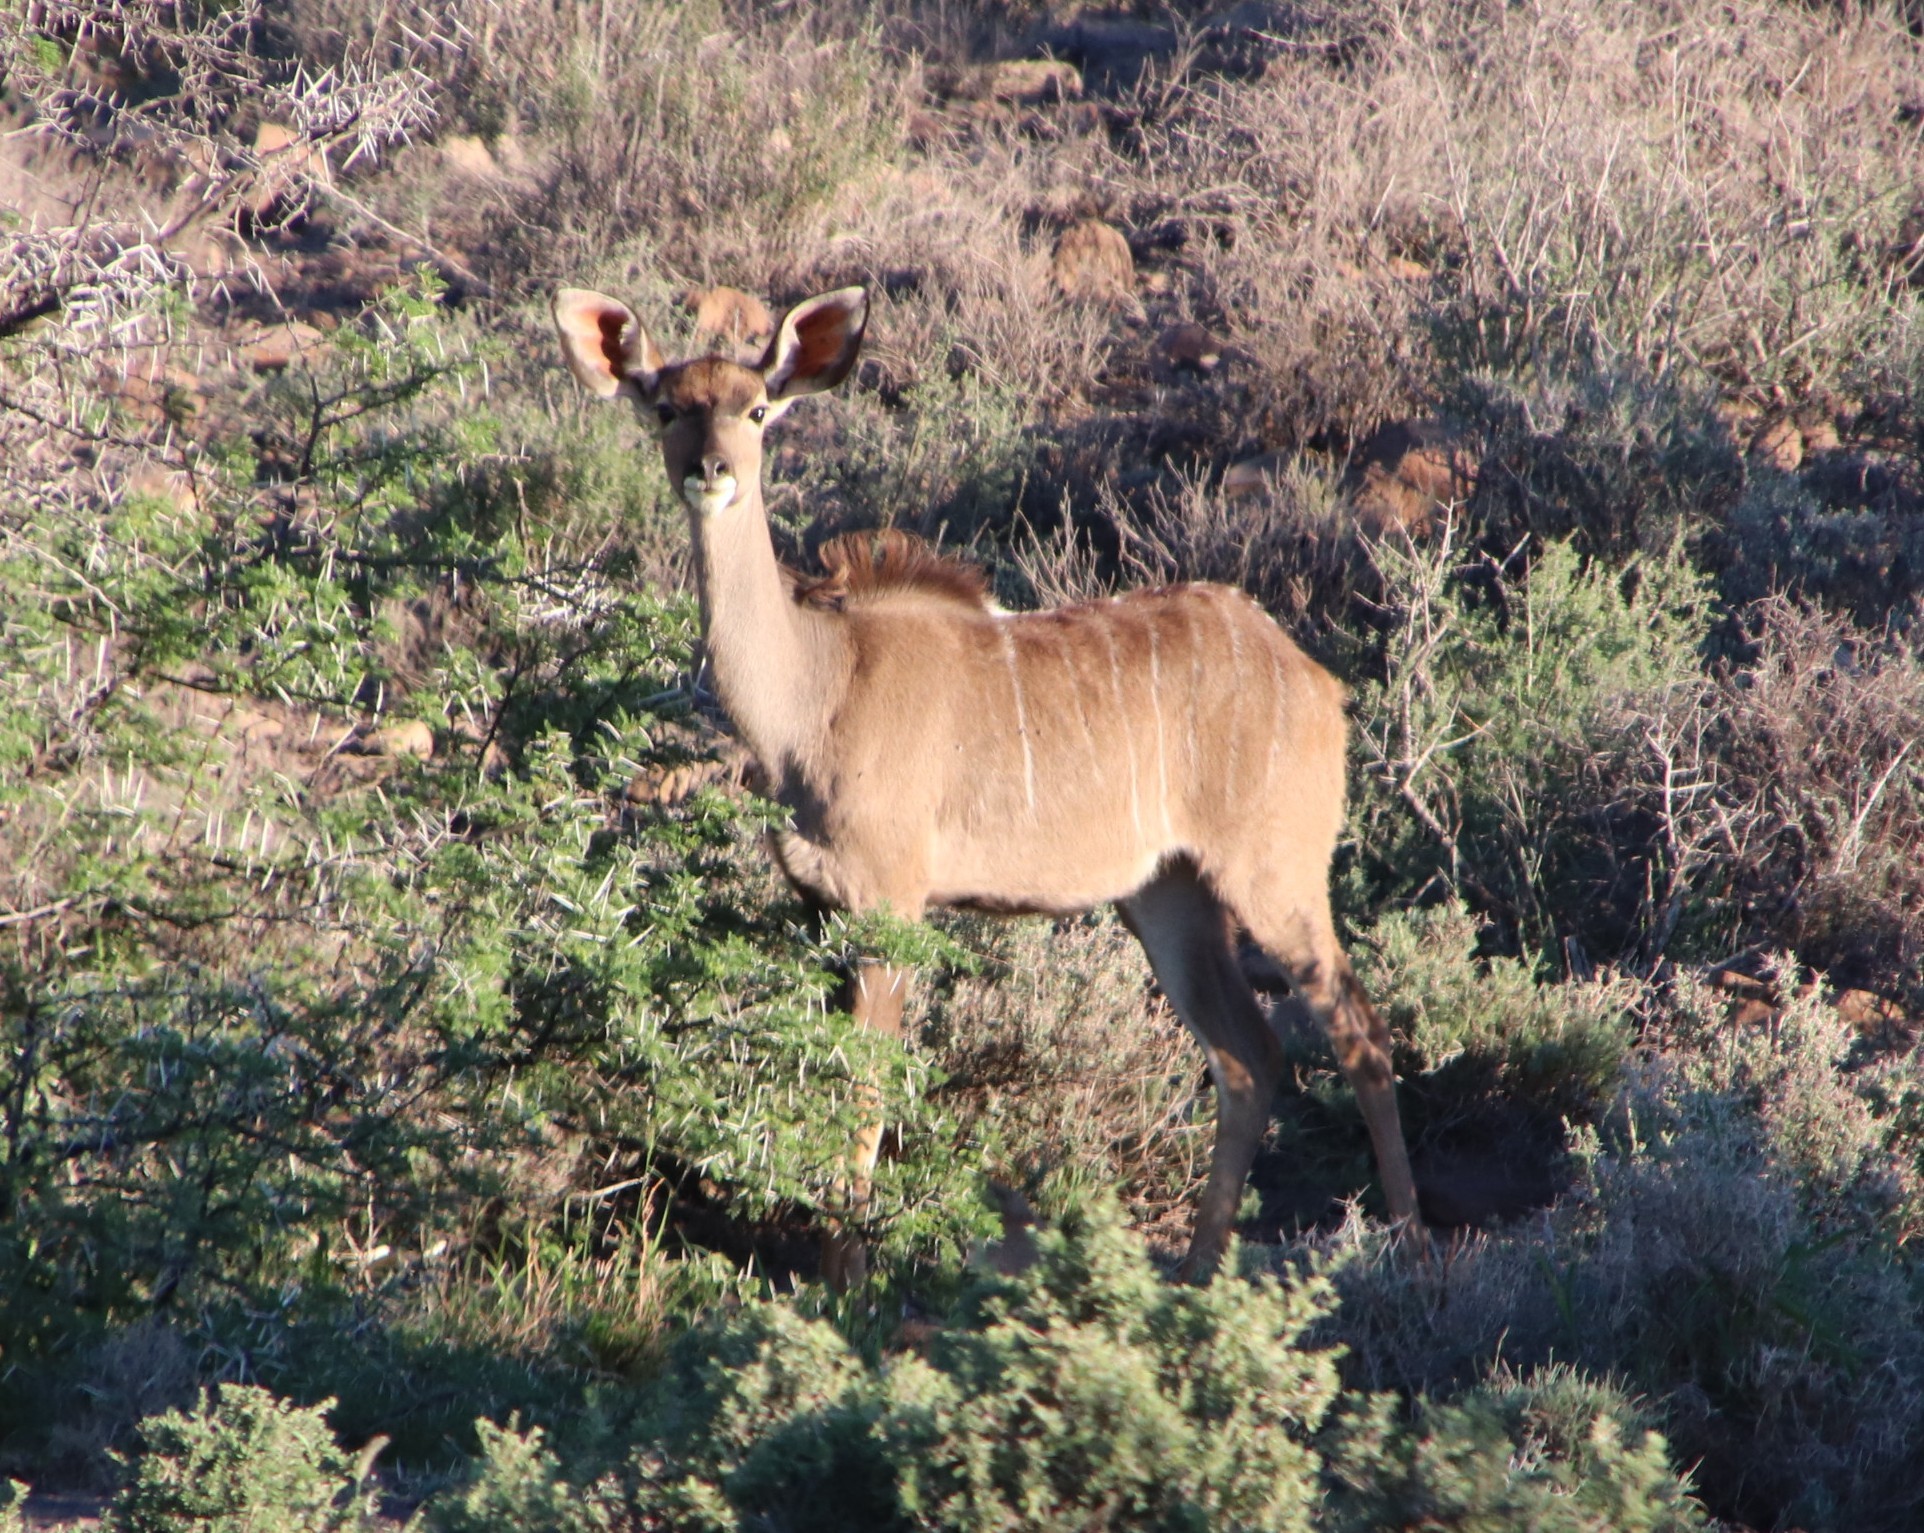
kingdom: Animalia
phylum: Chordata
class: Mammalia
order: Artiodactyla
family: Bovidae
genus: Tragelaphus
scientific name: Tragelaphus strepsiceros
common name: Greater kudu
